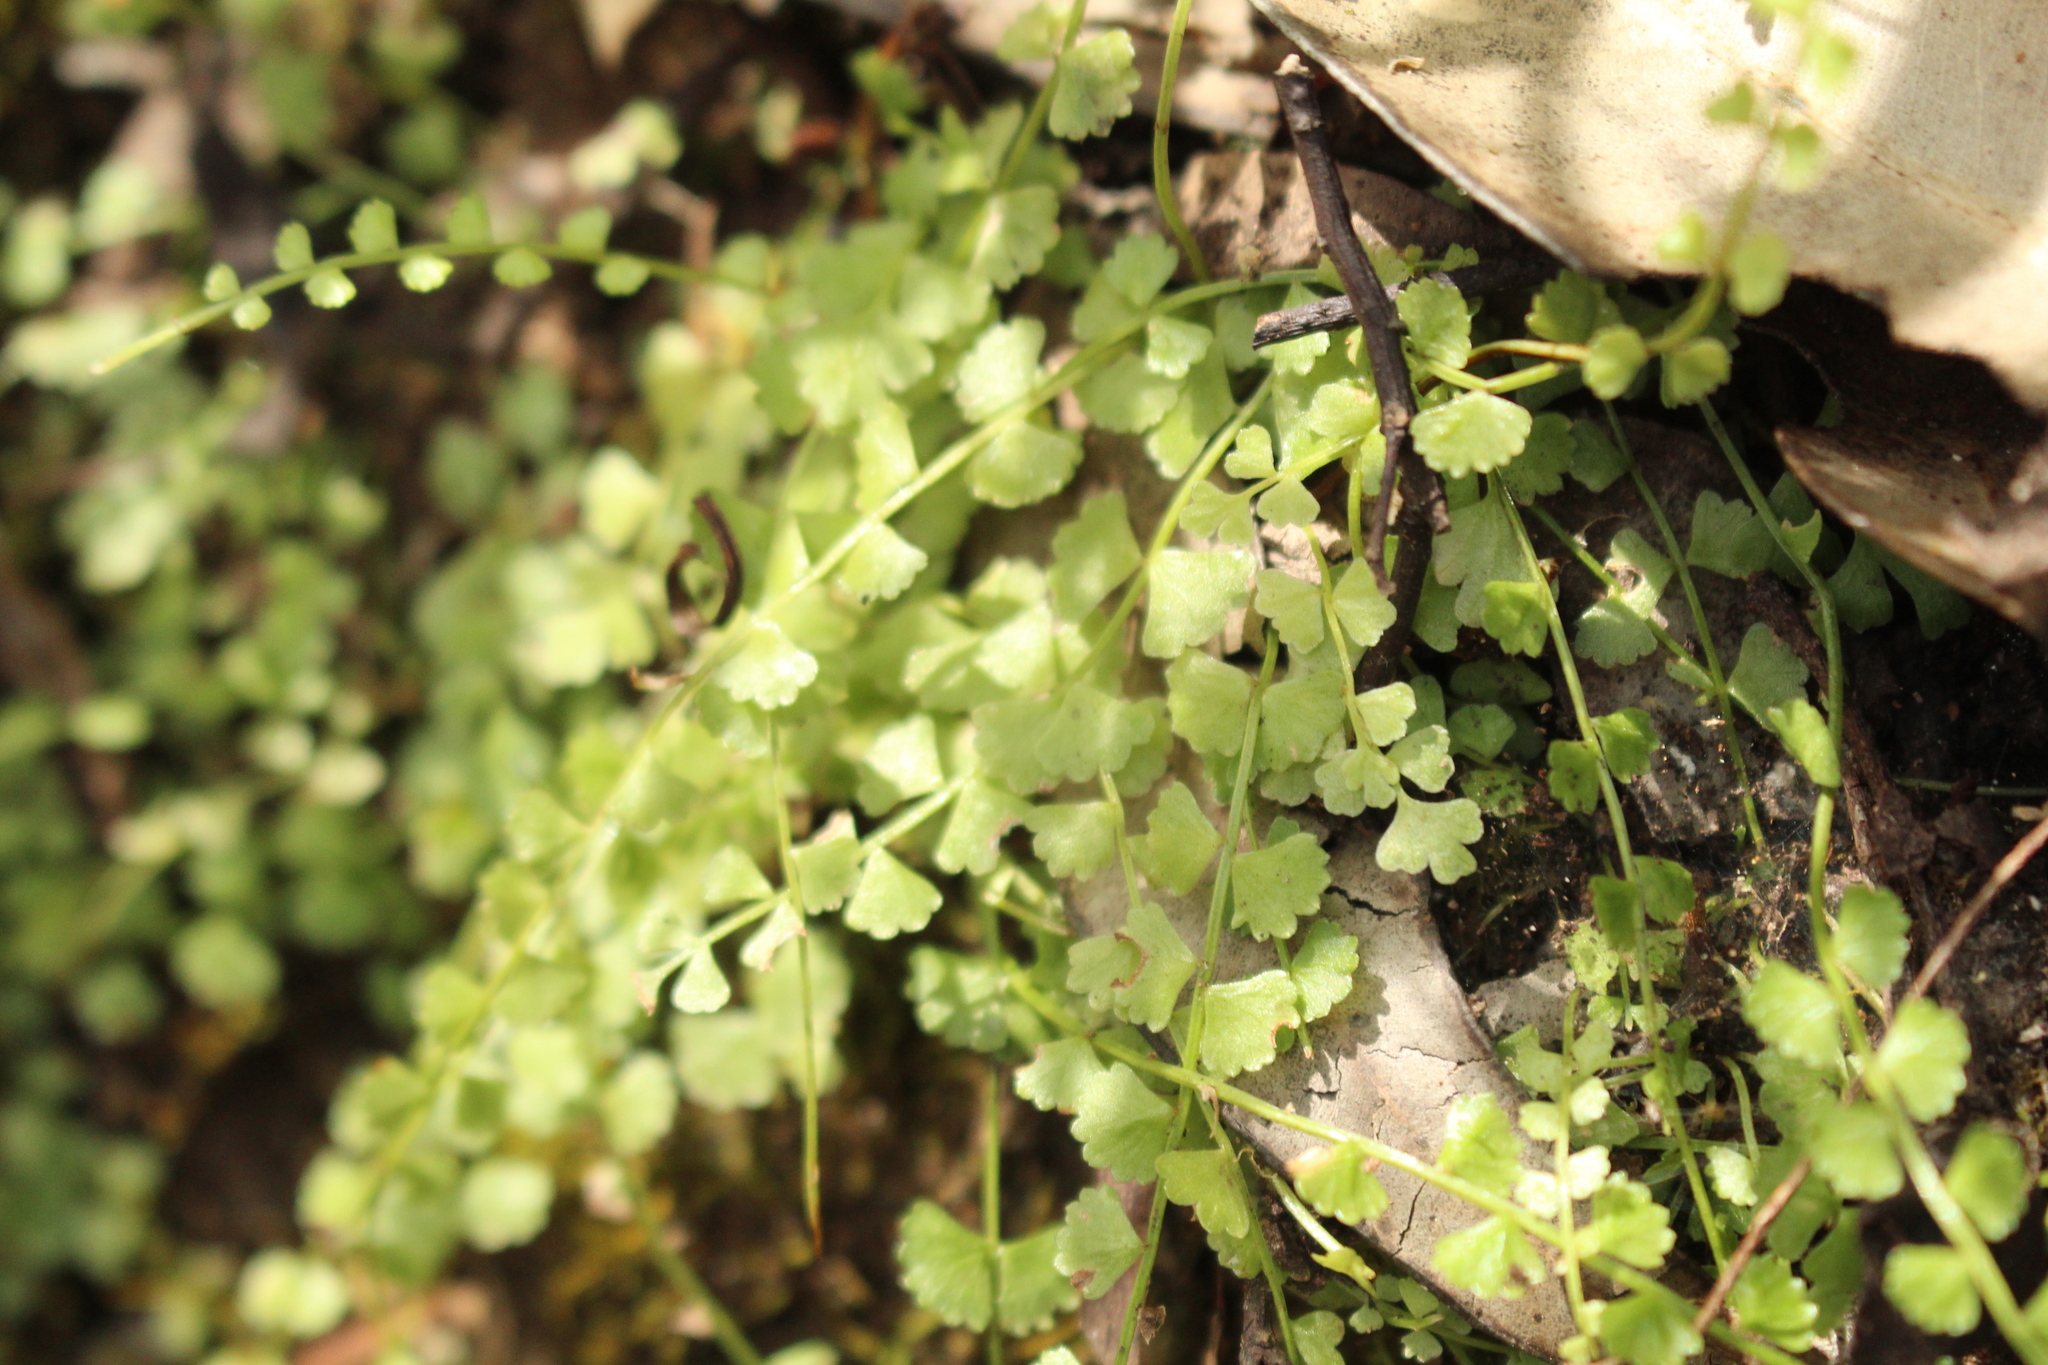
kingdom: Plantae
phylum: Tracheophyta
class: Polypodiopsida
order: Polypodiales
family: Aspleniaceae
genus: Asplenium
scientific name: Asplenium flabellifolium
